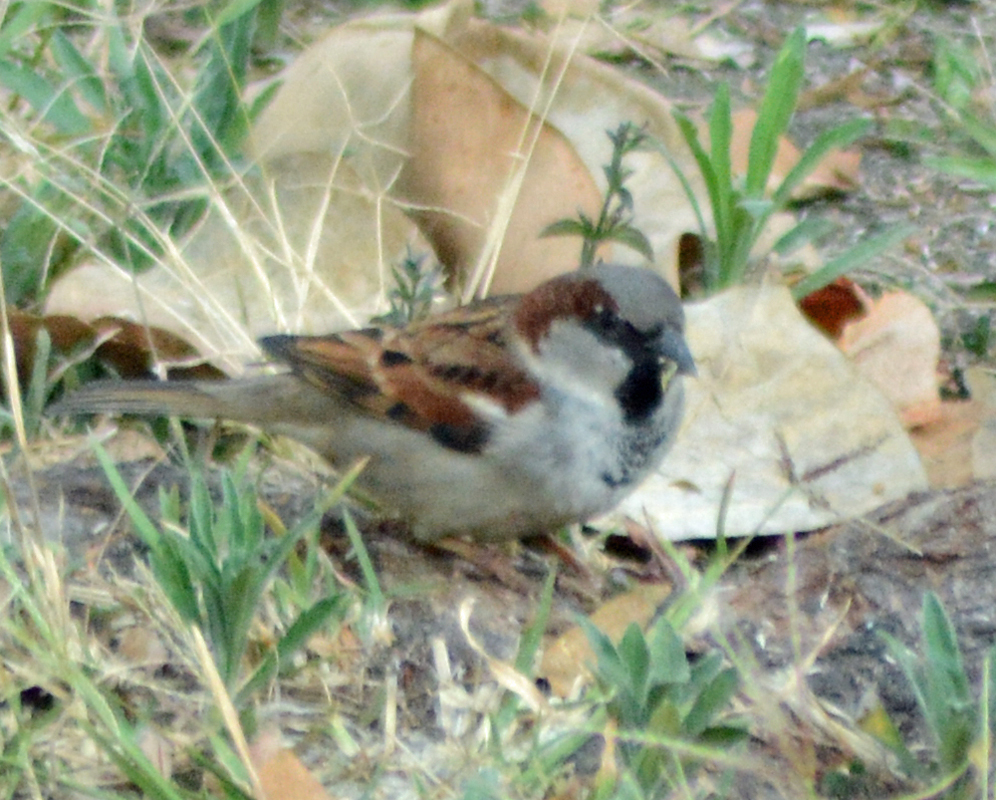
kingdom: Animalia
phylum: Chordata
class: Aves
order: Passeriformes
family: Passeridae
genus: Passer
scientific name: Passer domesticus
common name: House sparrow
